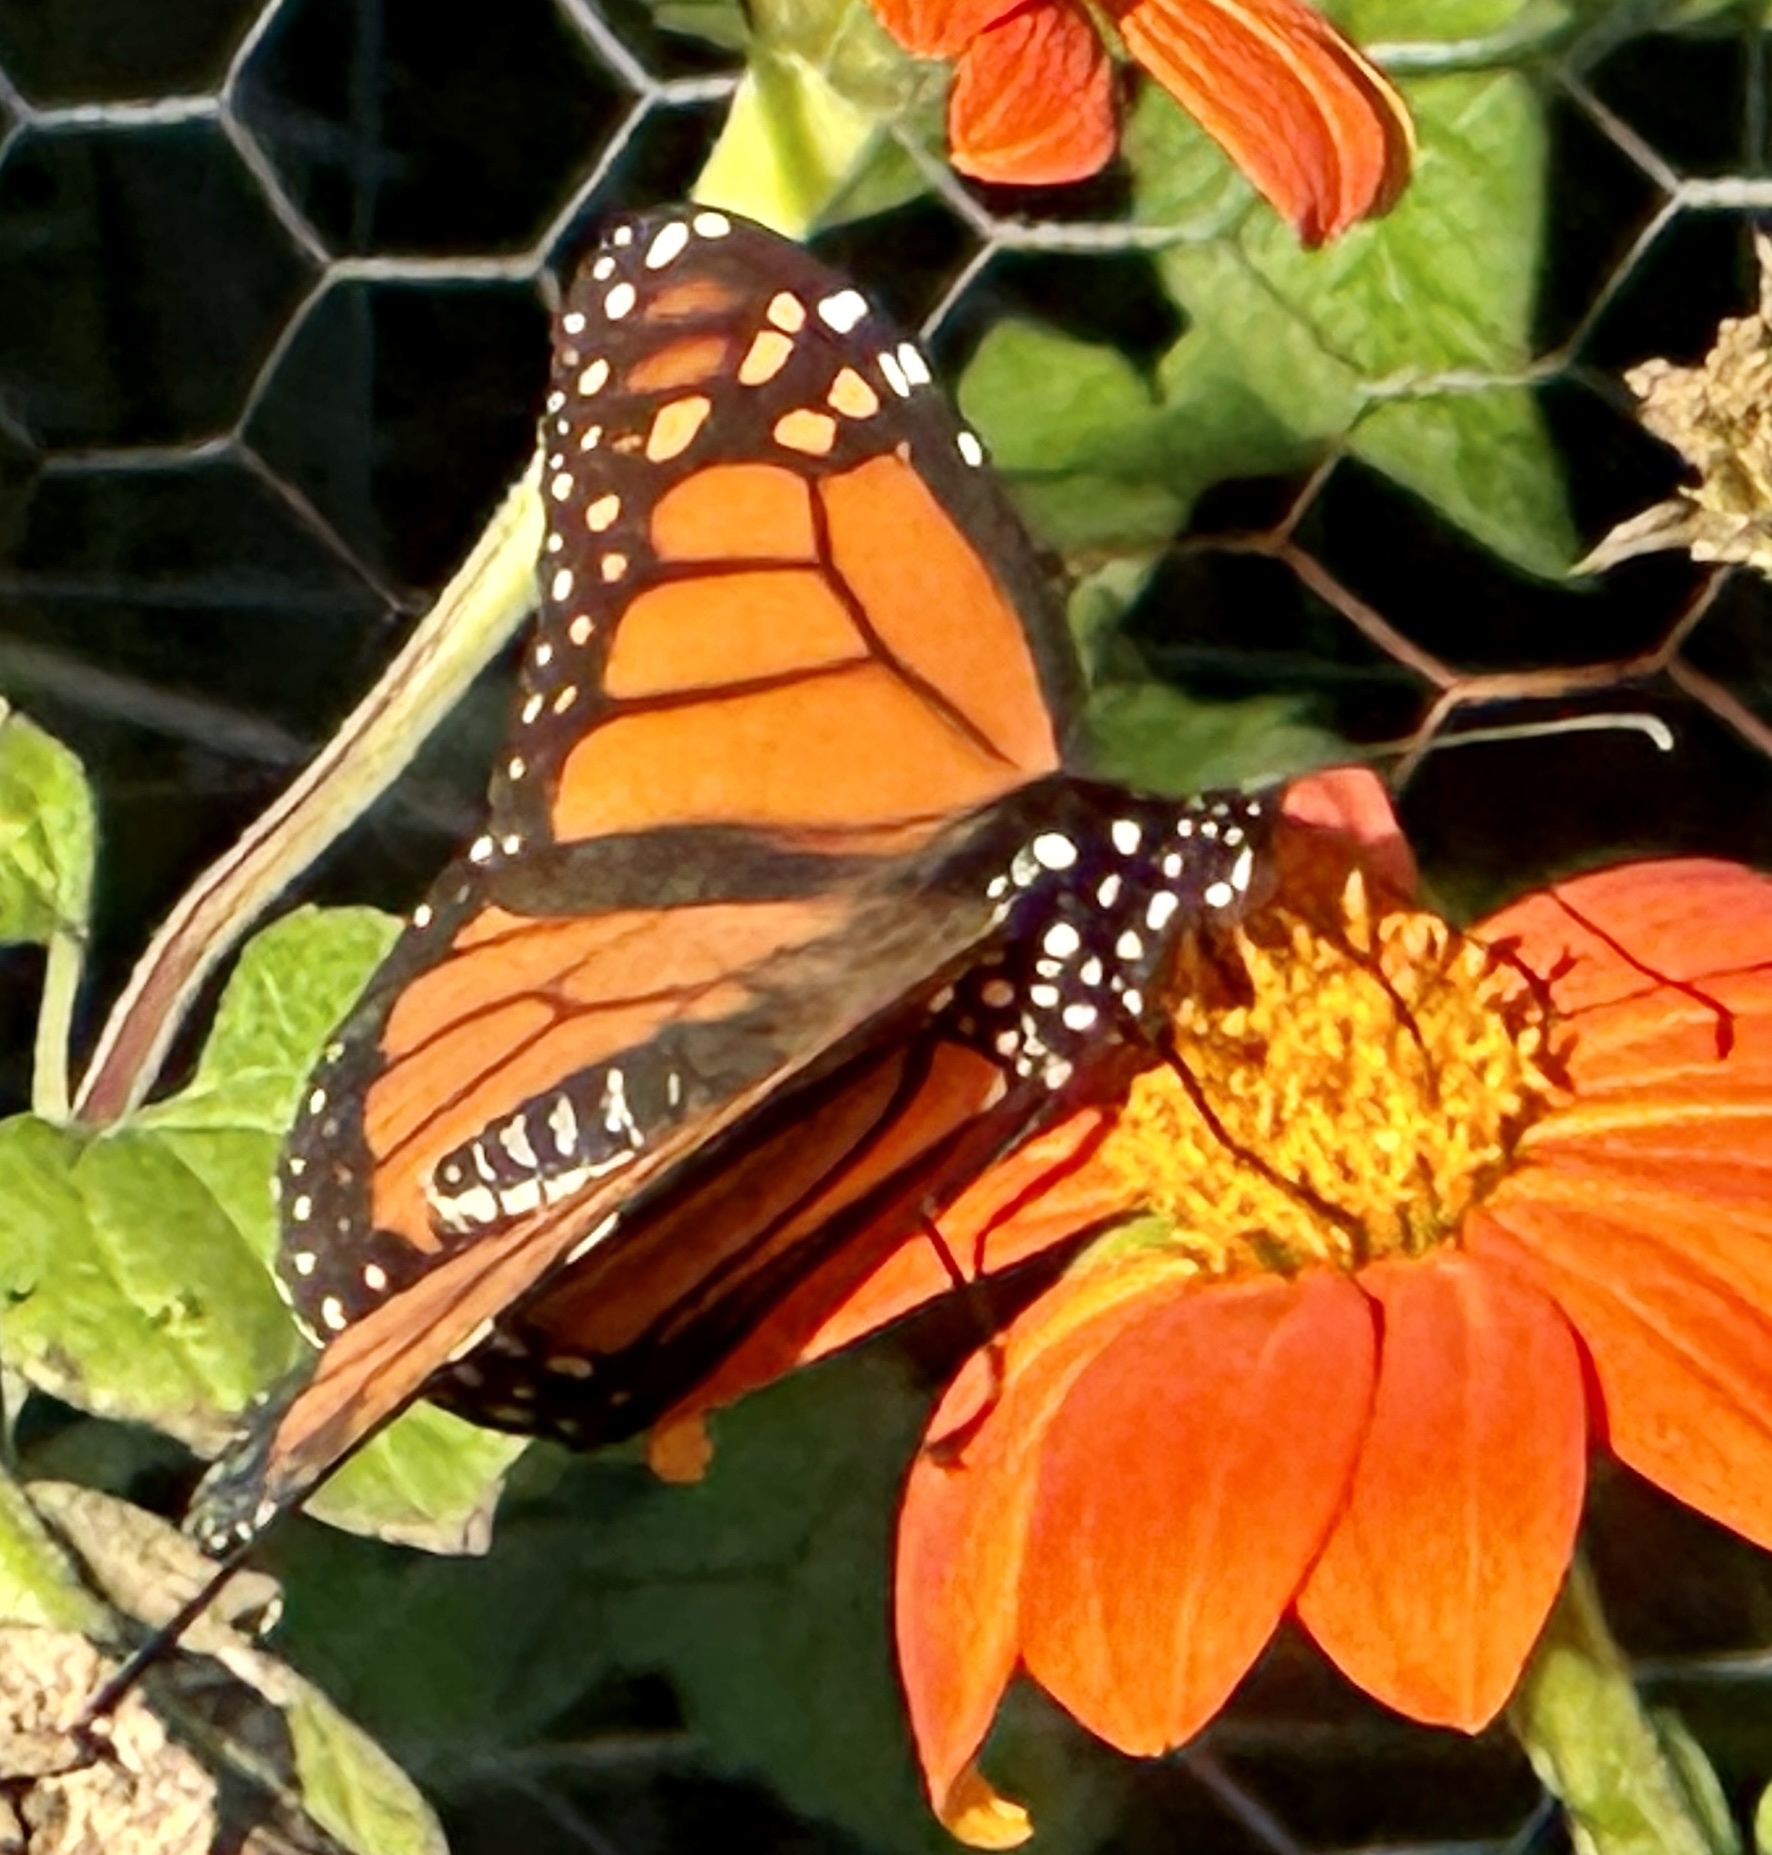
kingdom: Animalia
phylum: Arthropoda
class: Insecta
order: Lepidoptera
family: Nymphalidae
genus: Danaus
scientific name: Danaus plexippus
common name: Monarch
